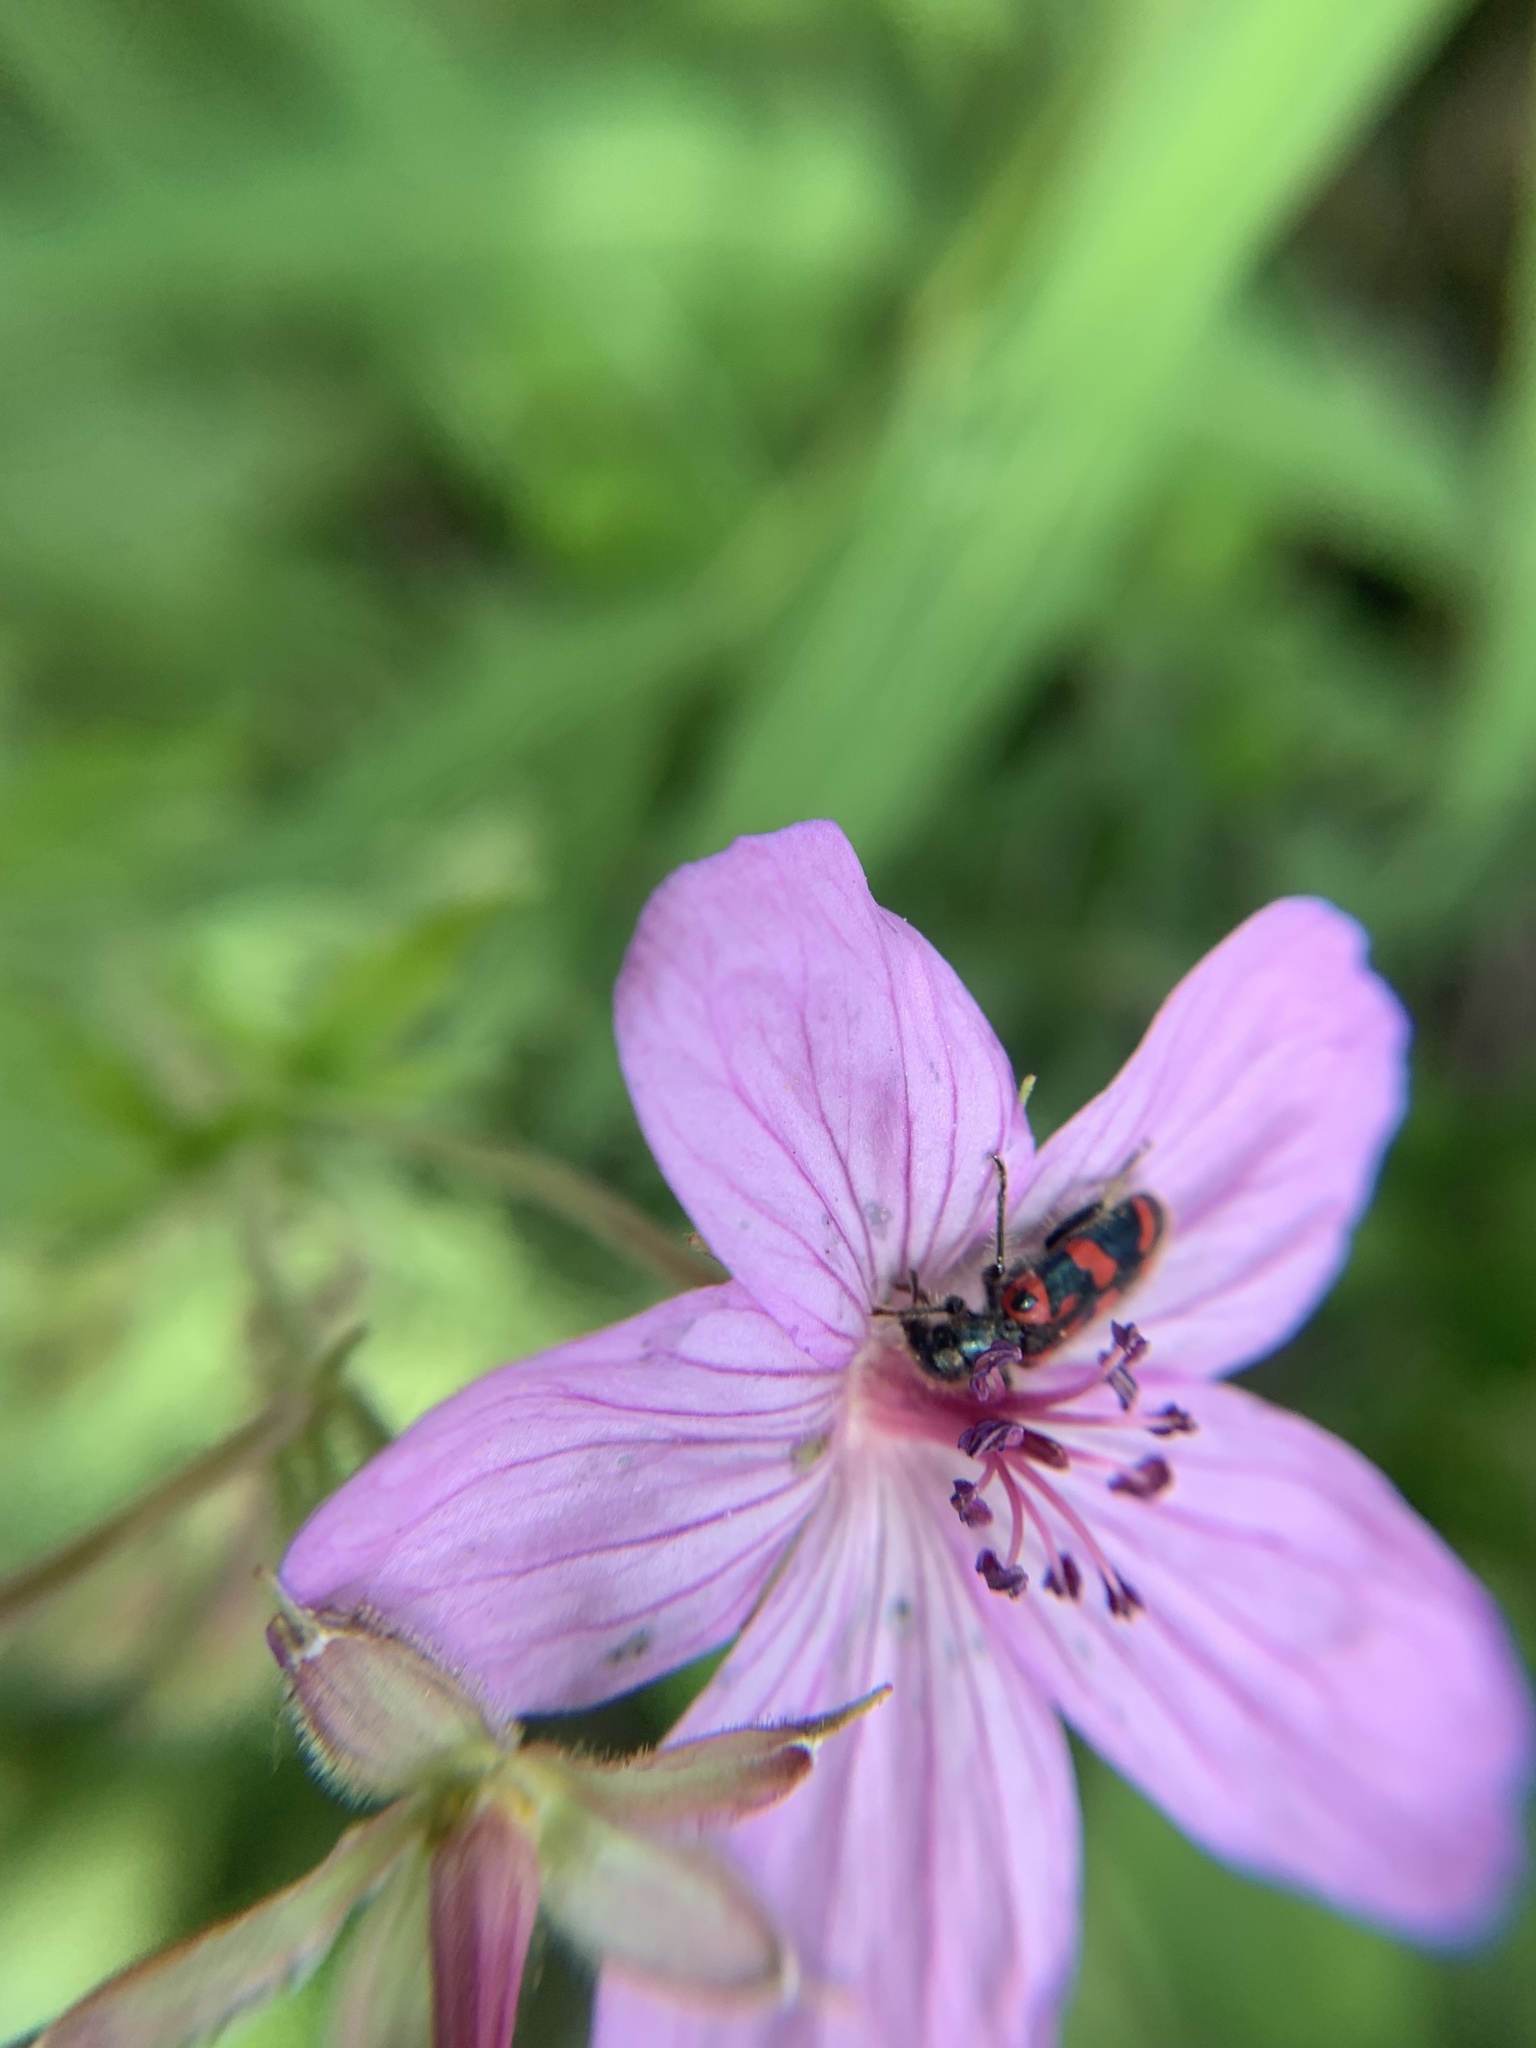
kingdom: Animalia
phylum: Arthropoda
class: Insecta
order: Coleoptera
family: Cleridae
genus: Trichodes
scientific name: Trichodes ornatus
